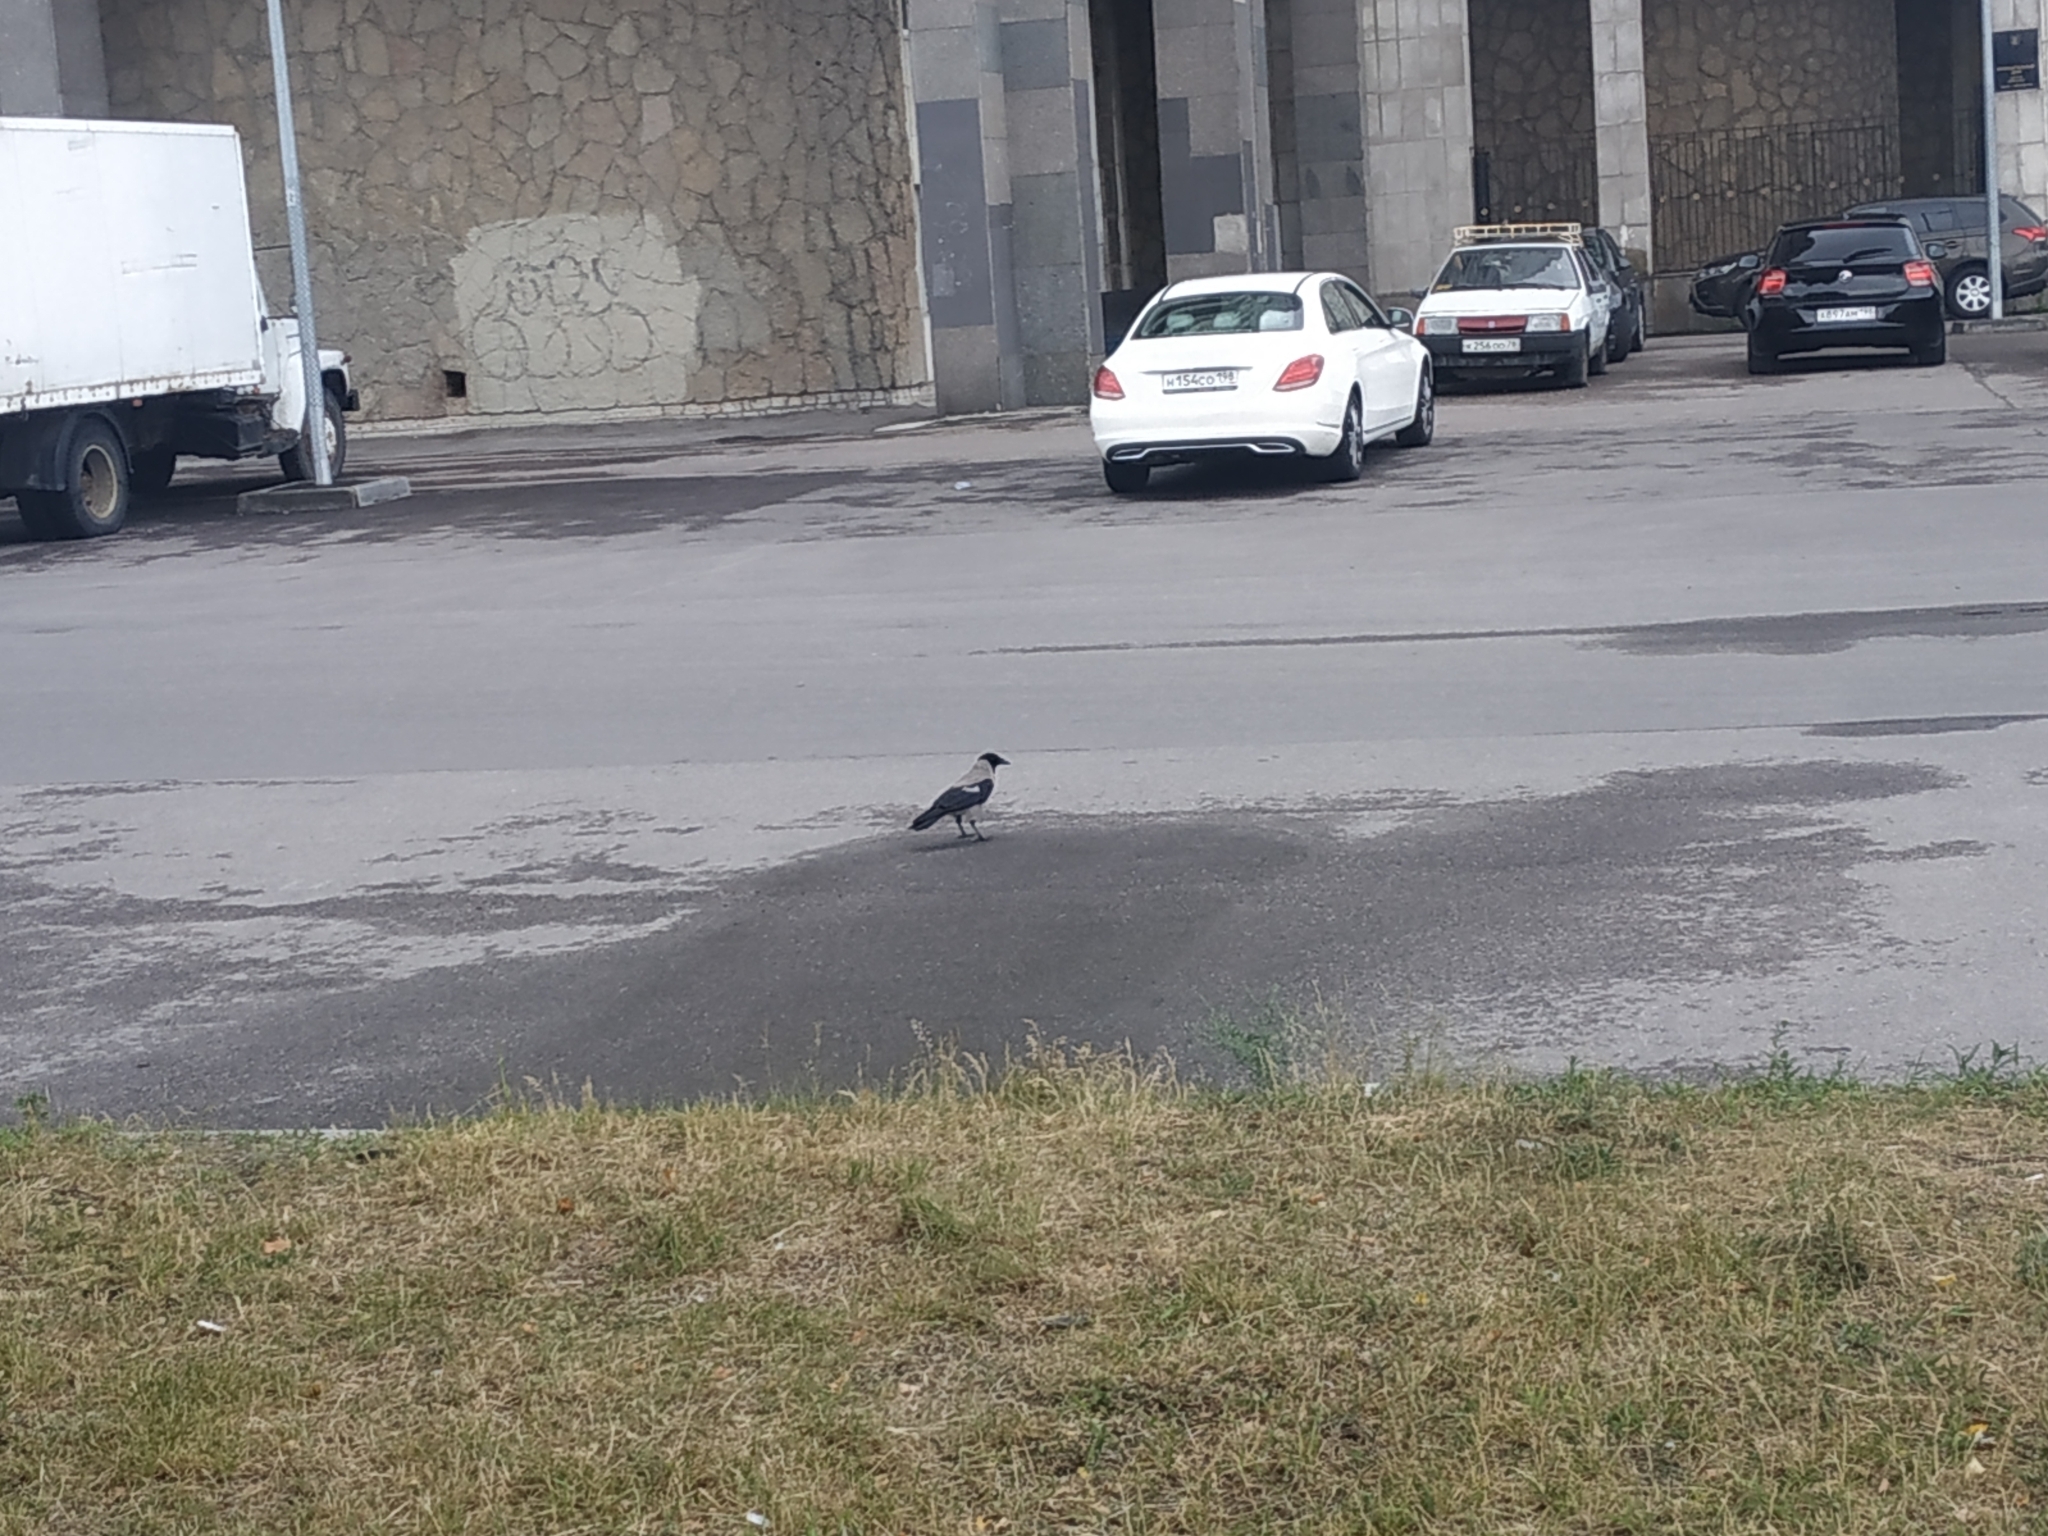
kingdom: Animalia
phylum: Chordata
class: Aves
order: Passeriformes
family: Corvidae
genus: Corvus
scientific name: Corvus cornix
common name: Hooded crow
